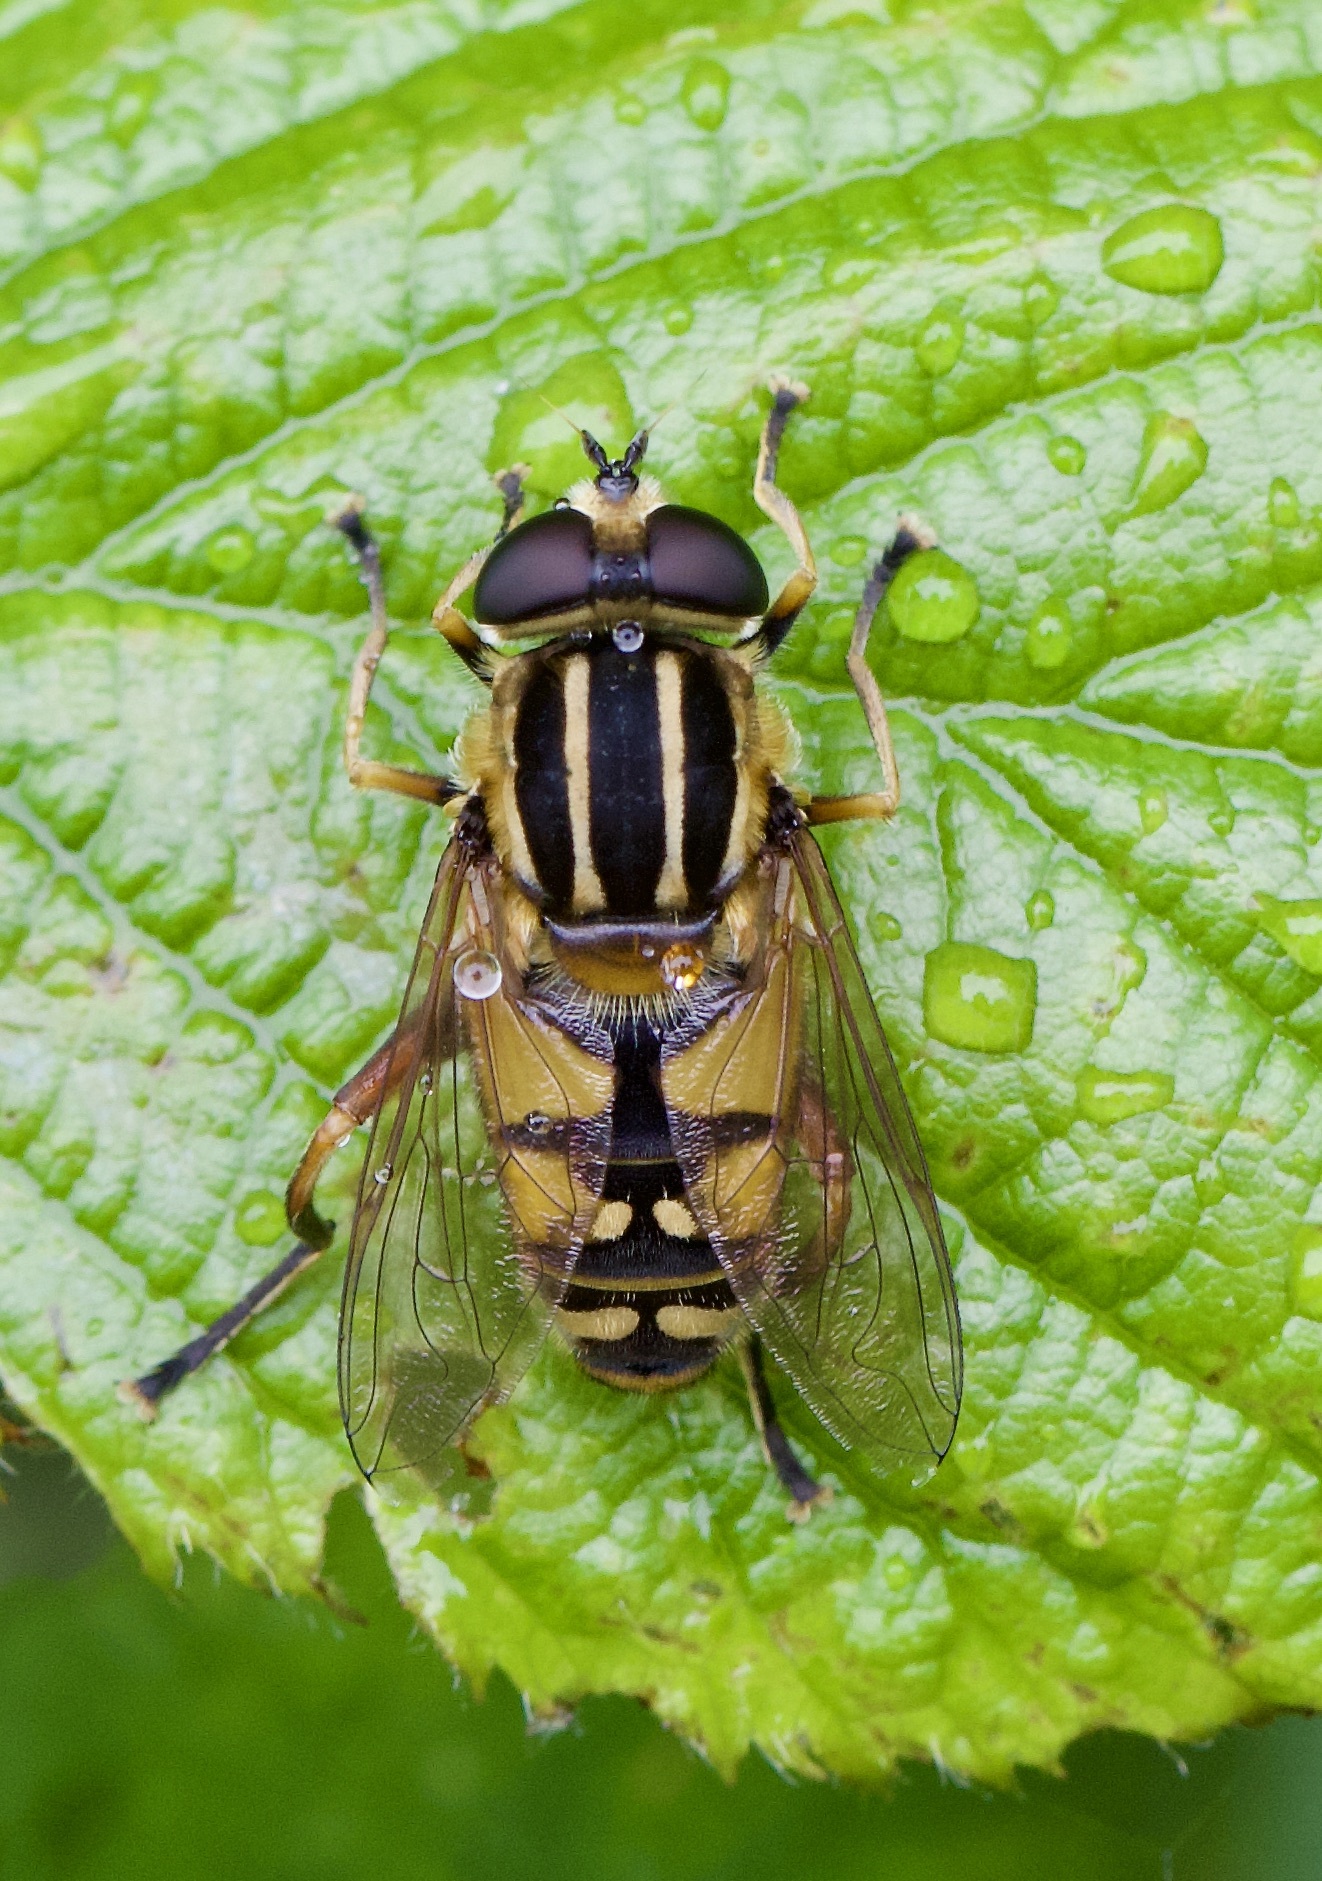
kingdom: Animalia
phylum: Arthropoda
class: Insecta
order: Diptera
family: Syrphidae
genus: Helophilus
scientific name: Helophilus pendulus
